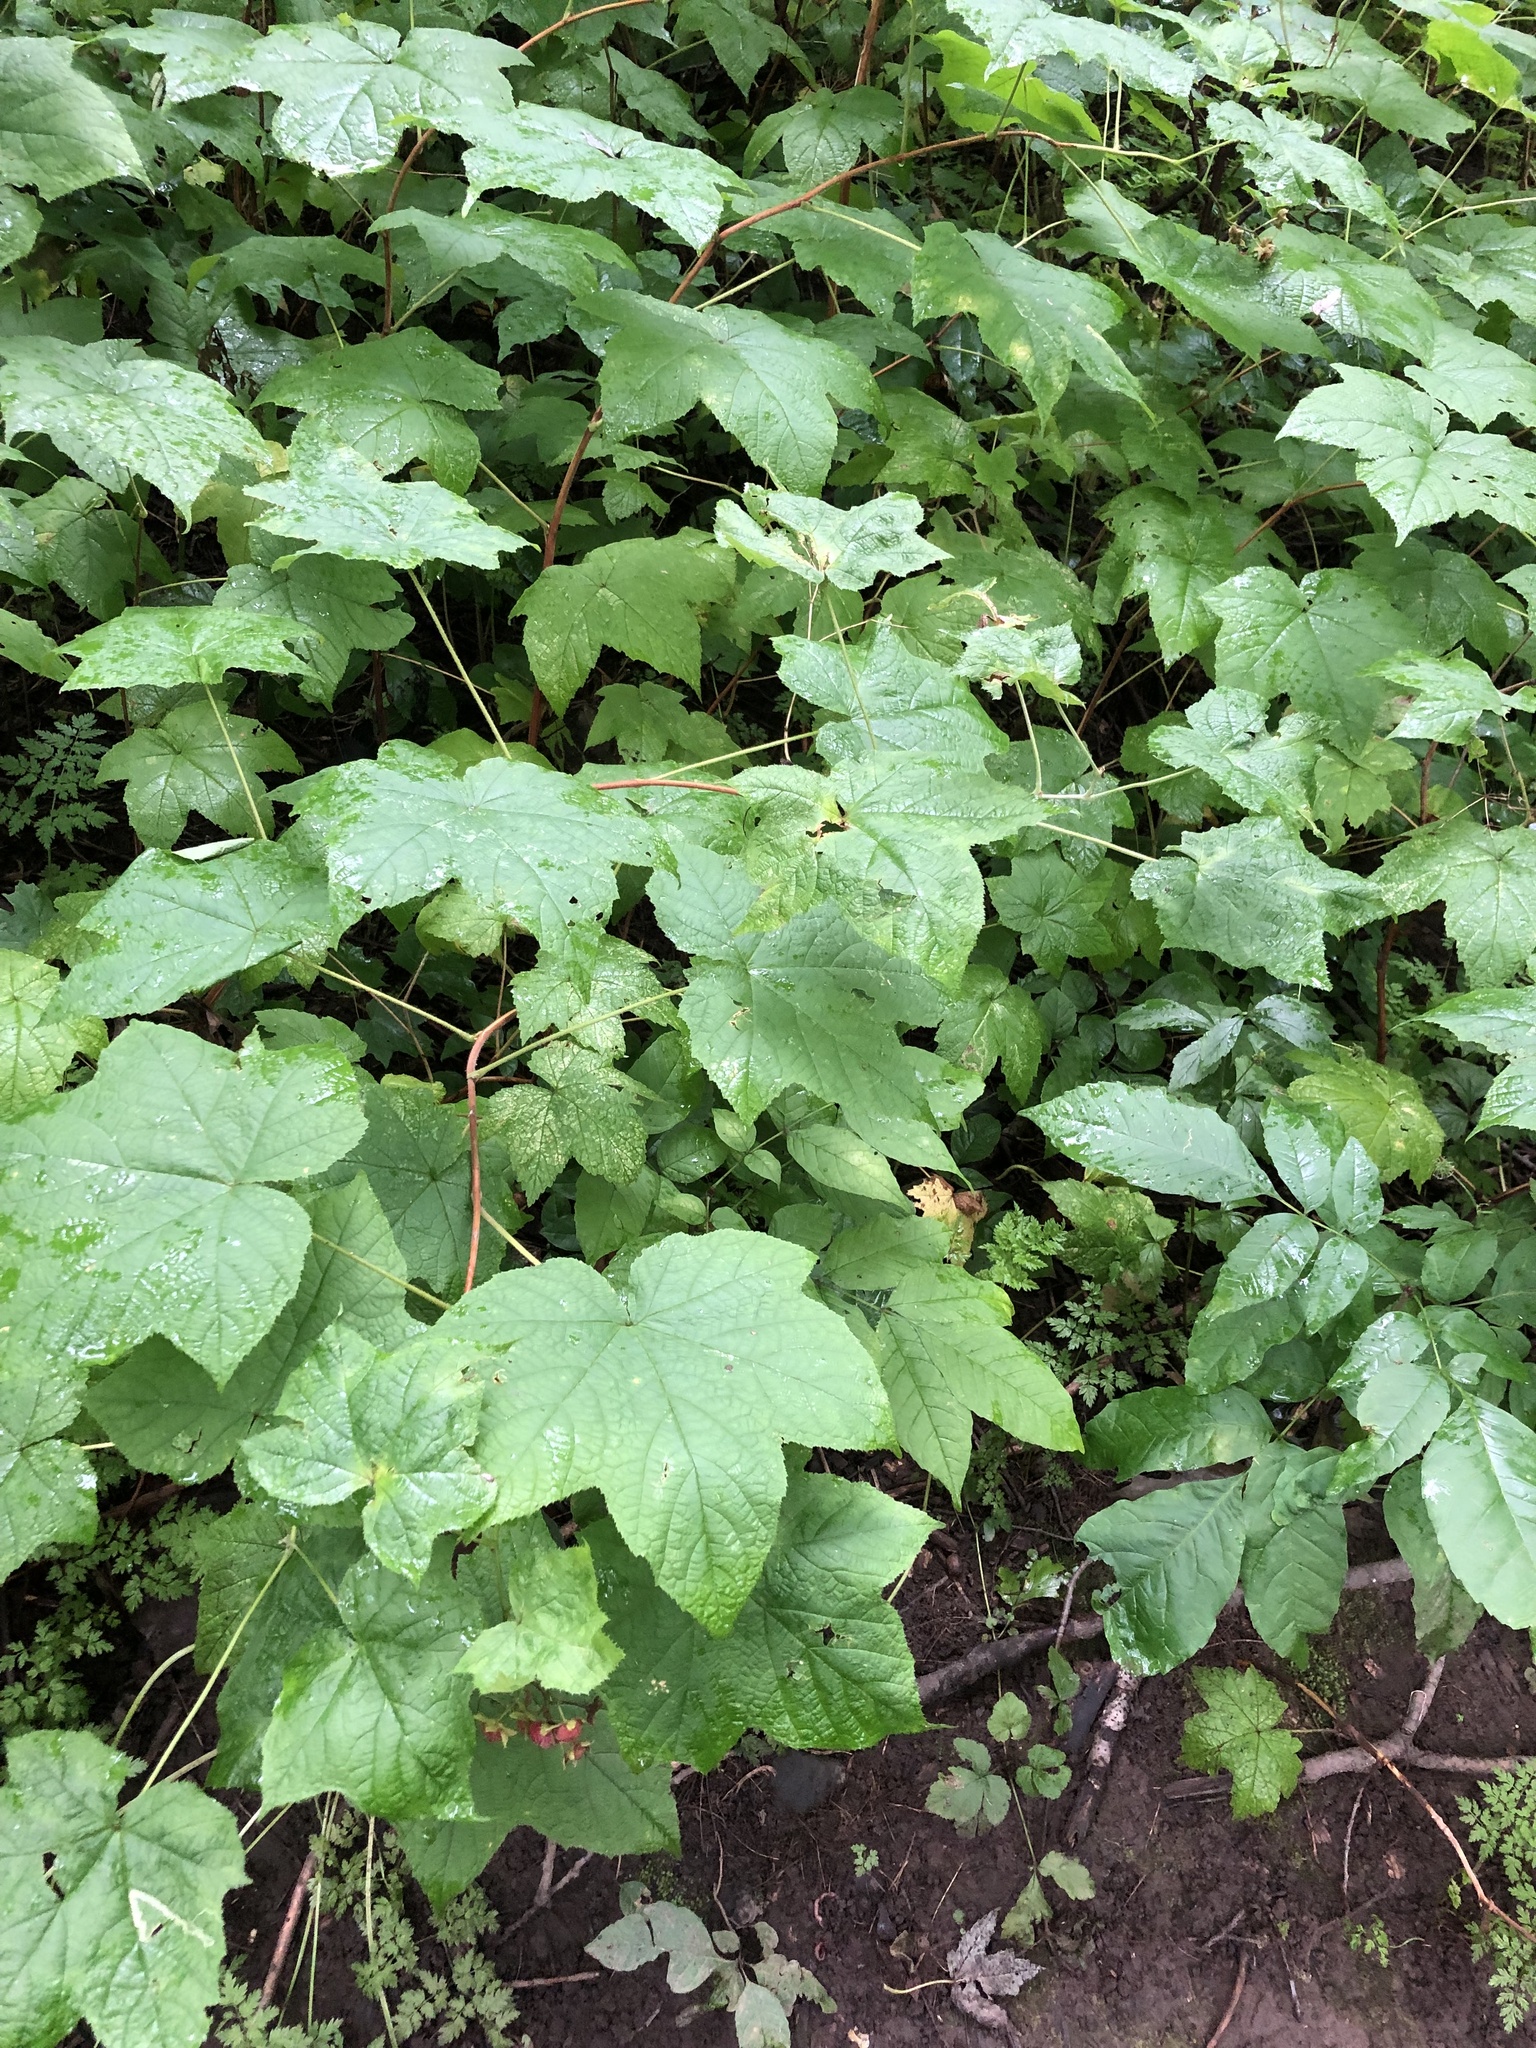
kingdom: Plantae
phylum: Tracheophyta
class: Magnoliopsida
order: Rosales
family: Rosaceae
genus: Rubus
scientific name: Rubus odoratus
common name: Purple-flowered raspberry
